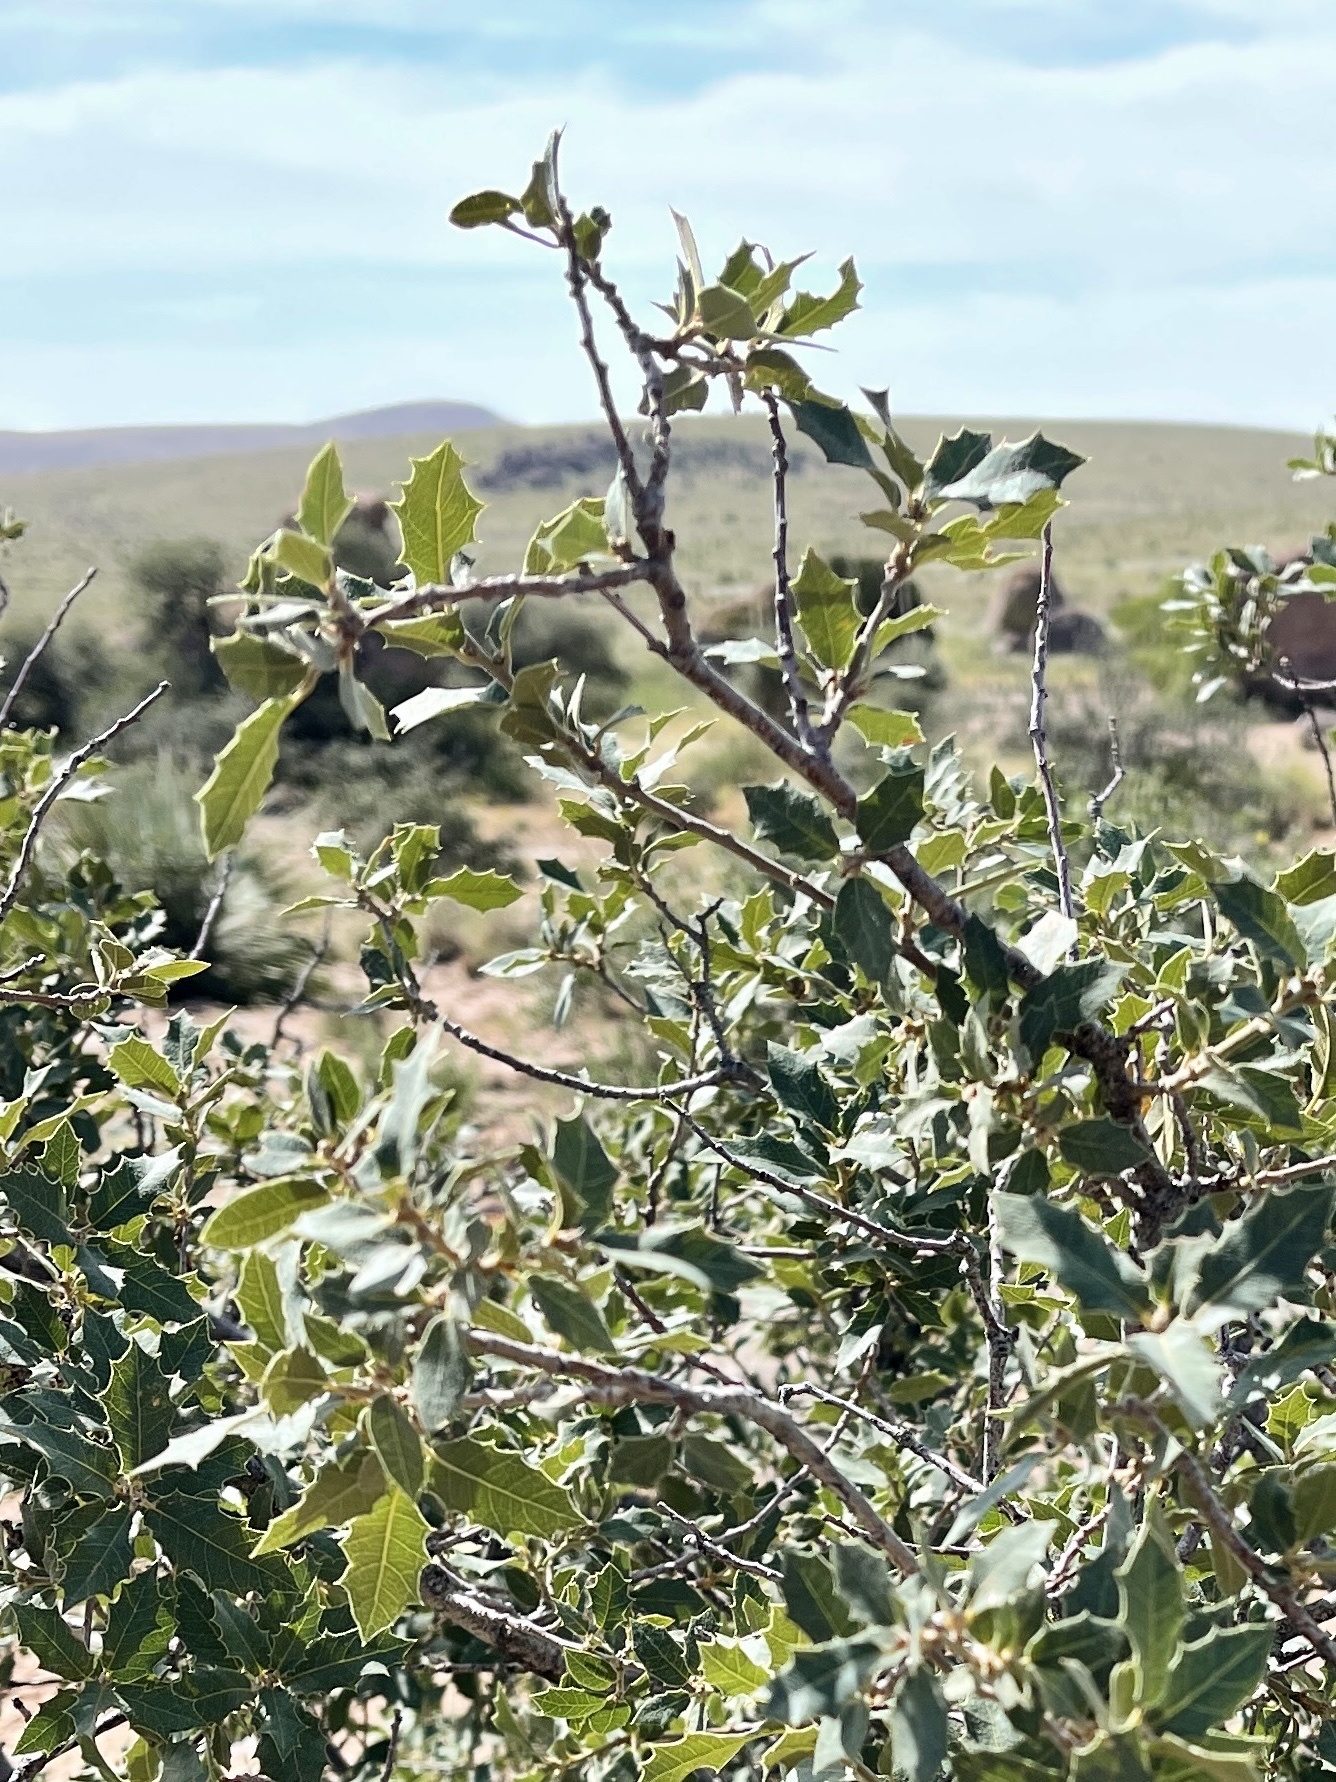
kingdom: Plantae
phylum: Tracheophyta
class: Magnoliopsida
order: Fagales
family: Fagaceae
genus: Quercus
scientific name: Quercus turbinella
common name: Sonoran scrub oak
